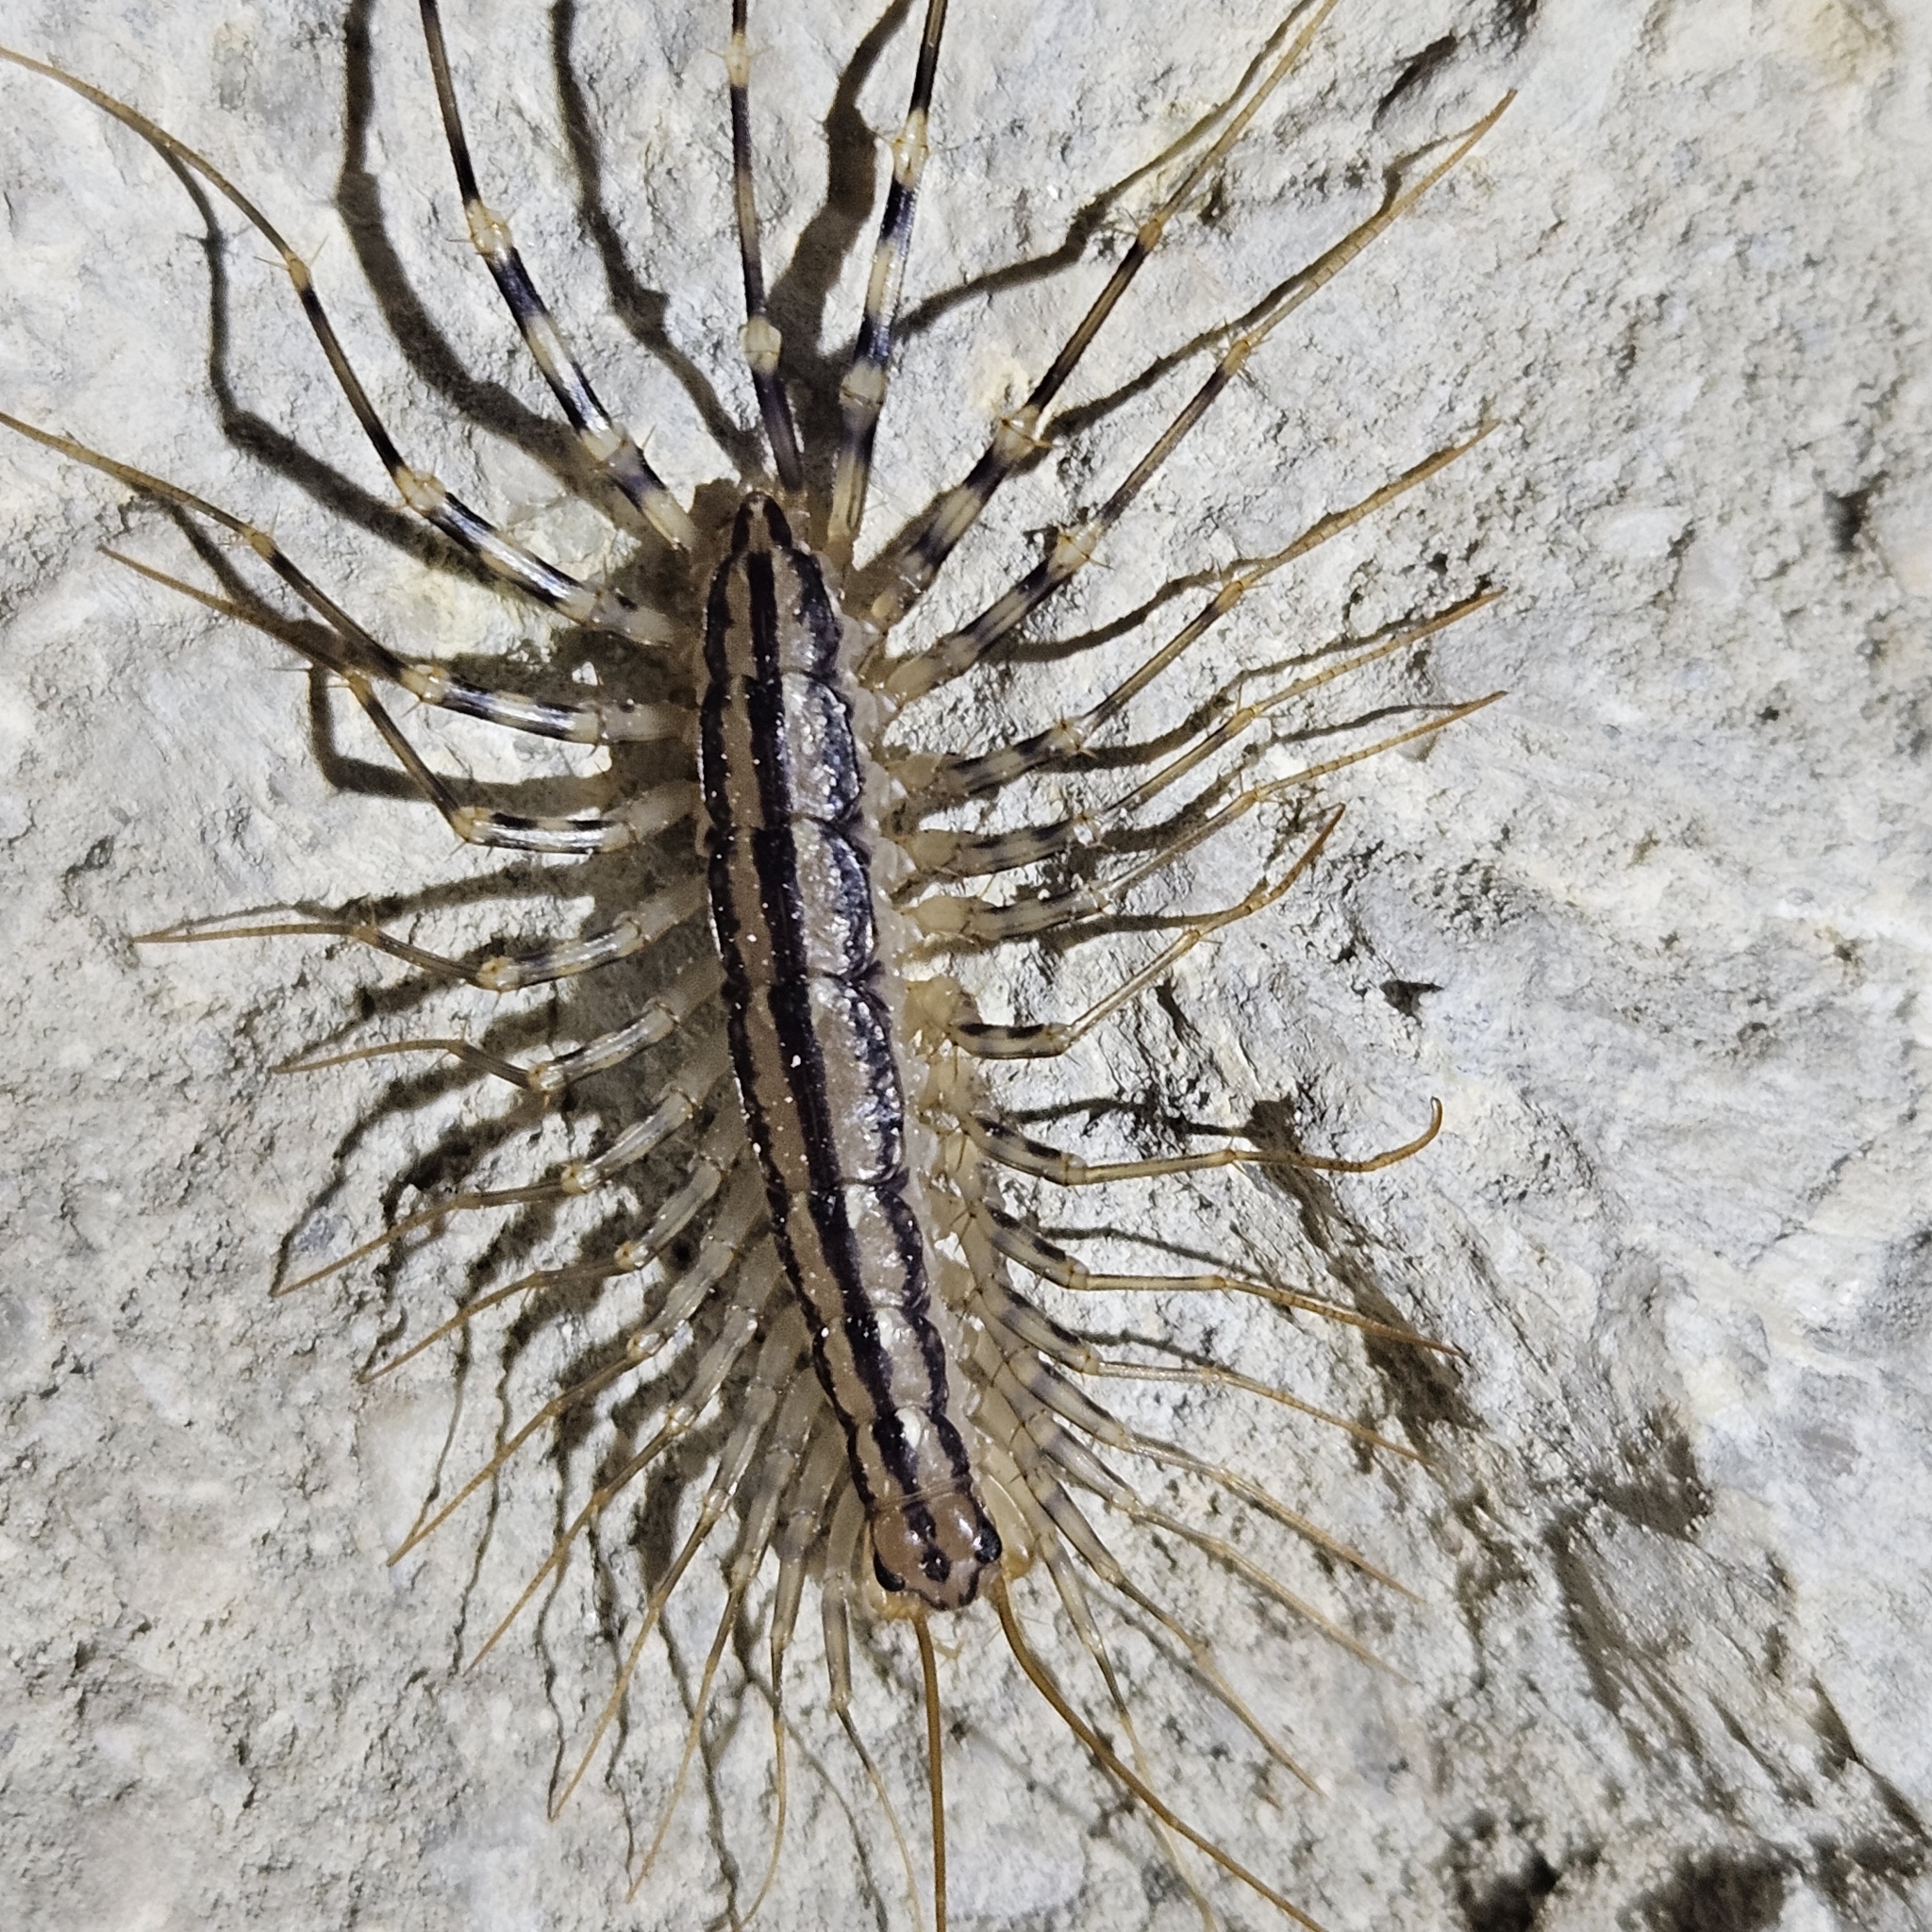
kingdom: Animalia
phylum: Arthropoda
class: Chilopoda
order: Scutigeromorpha
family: Scutigeridae
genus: Scutigera
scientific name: Scutigera coleoptrata
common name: House centipede
